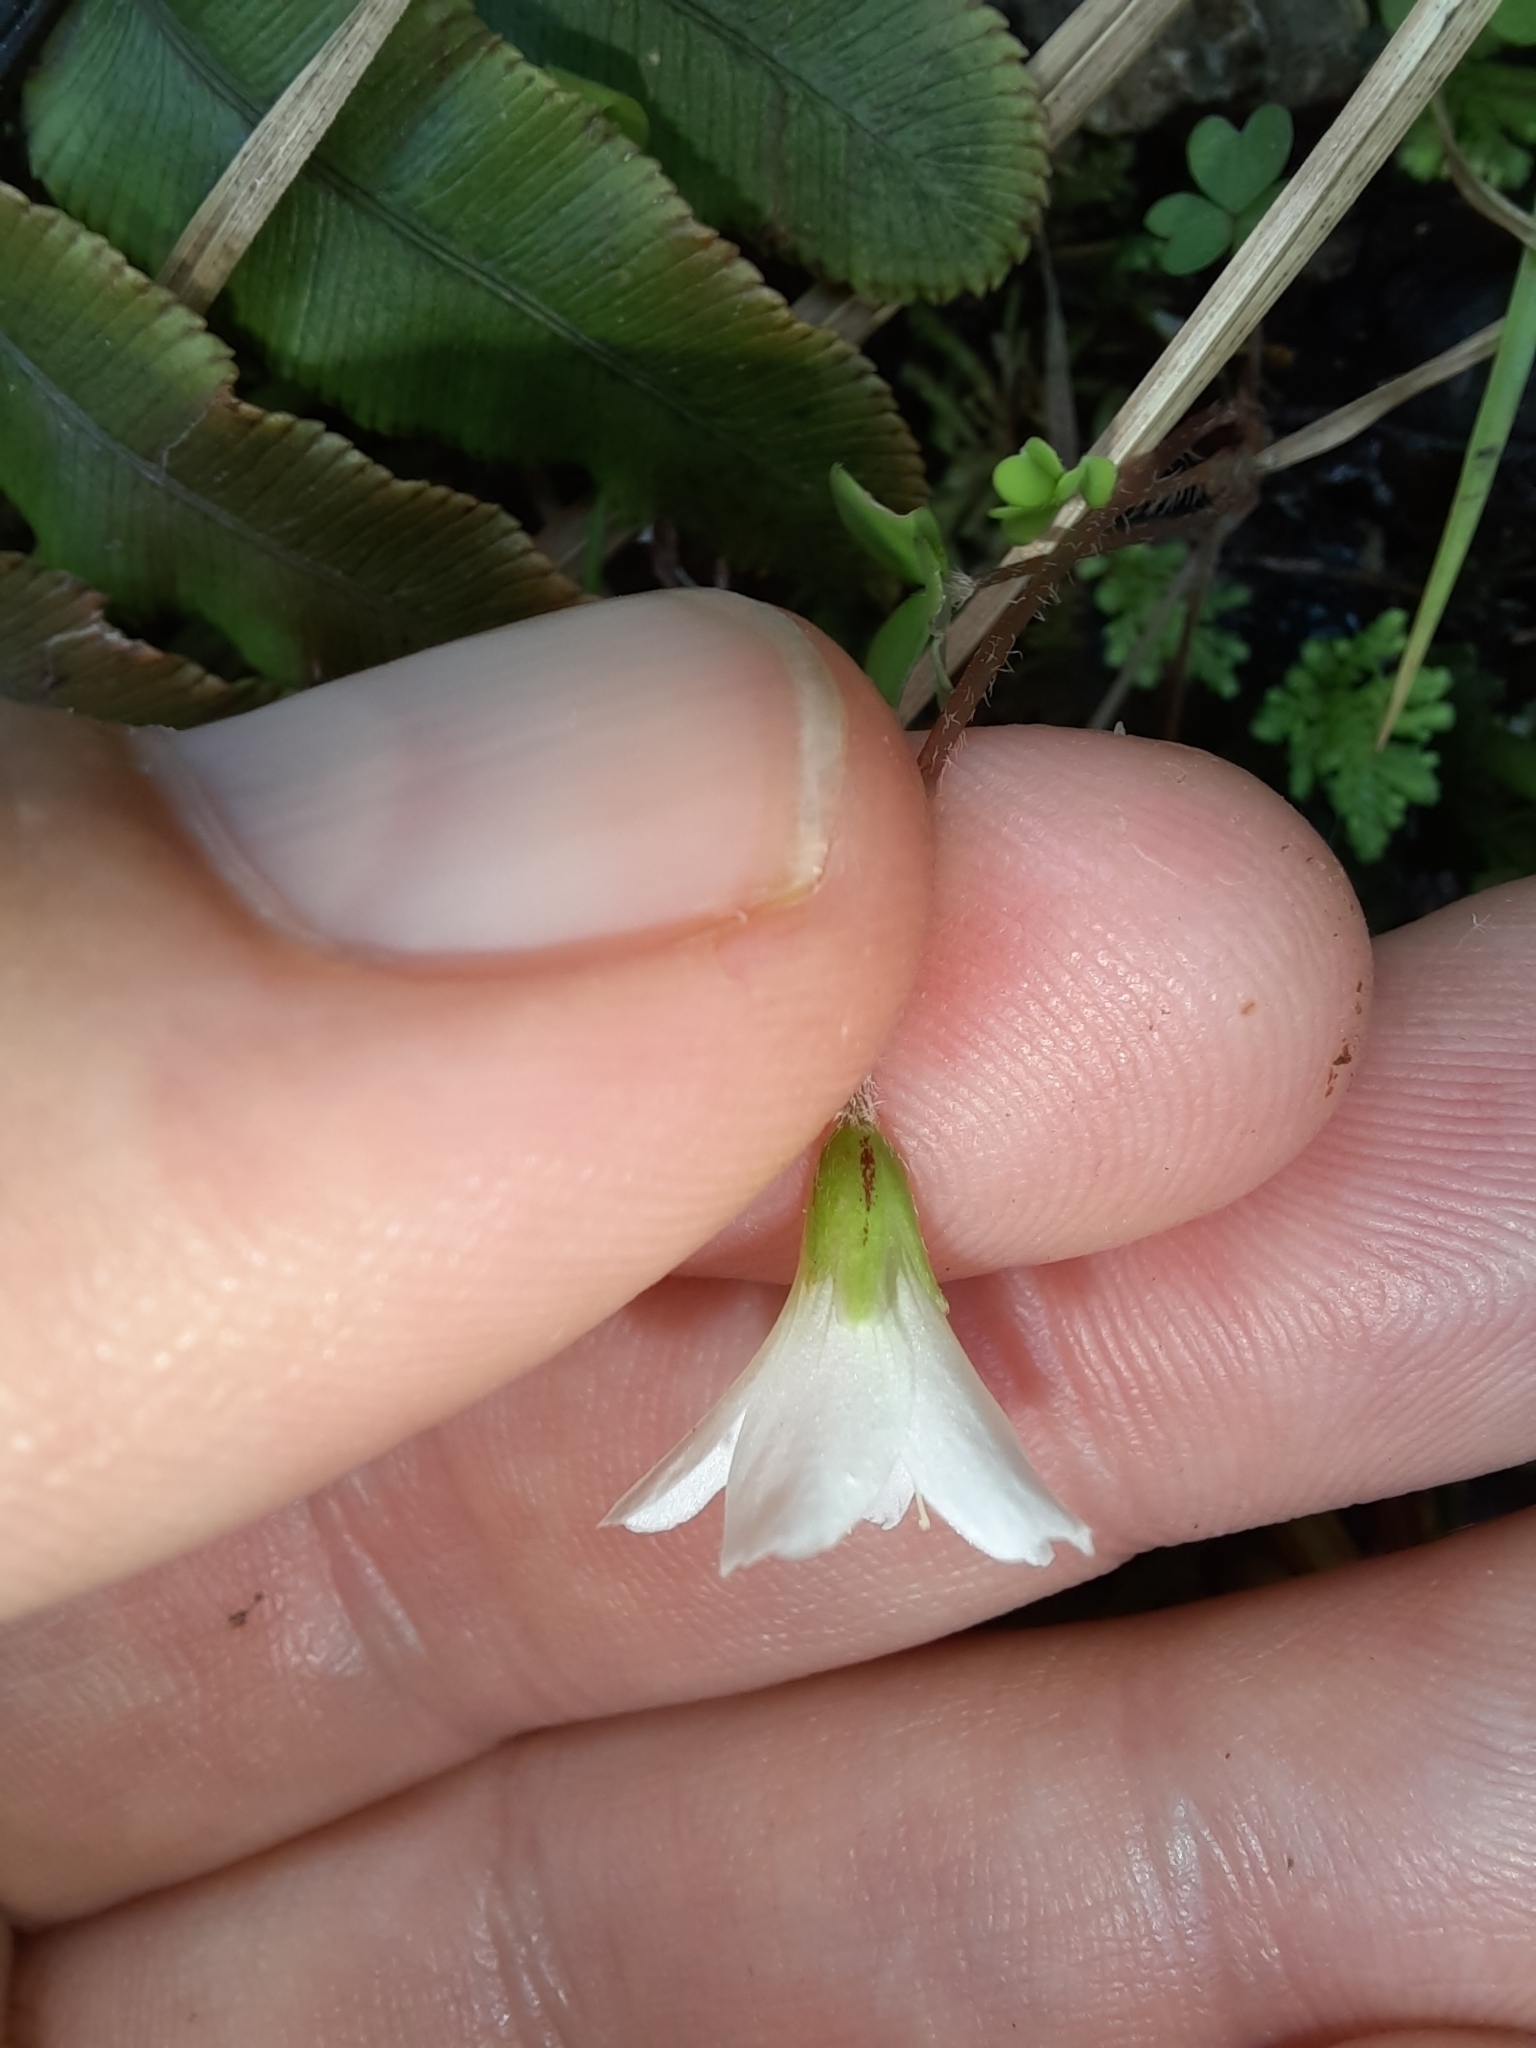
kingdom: Plantae
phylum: Tracheophyta
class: Magnoliopsida
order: Oxalidales
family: Oxalidaceae
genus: Oxalis
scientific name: Oxalis magellanica
